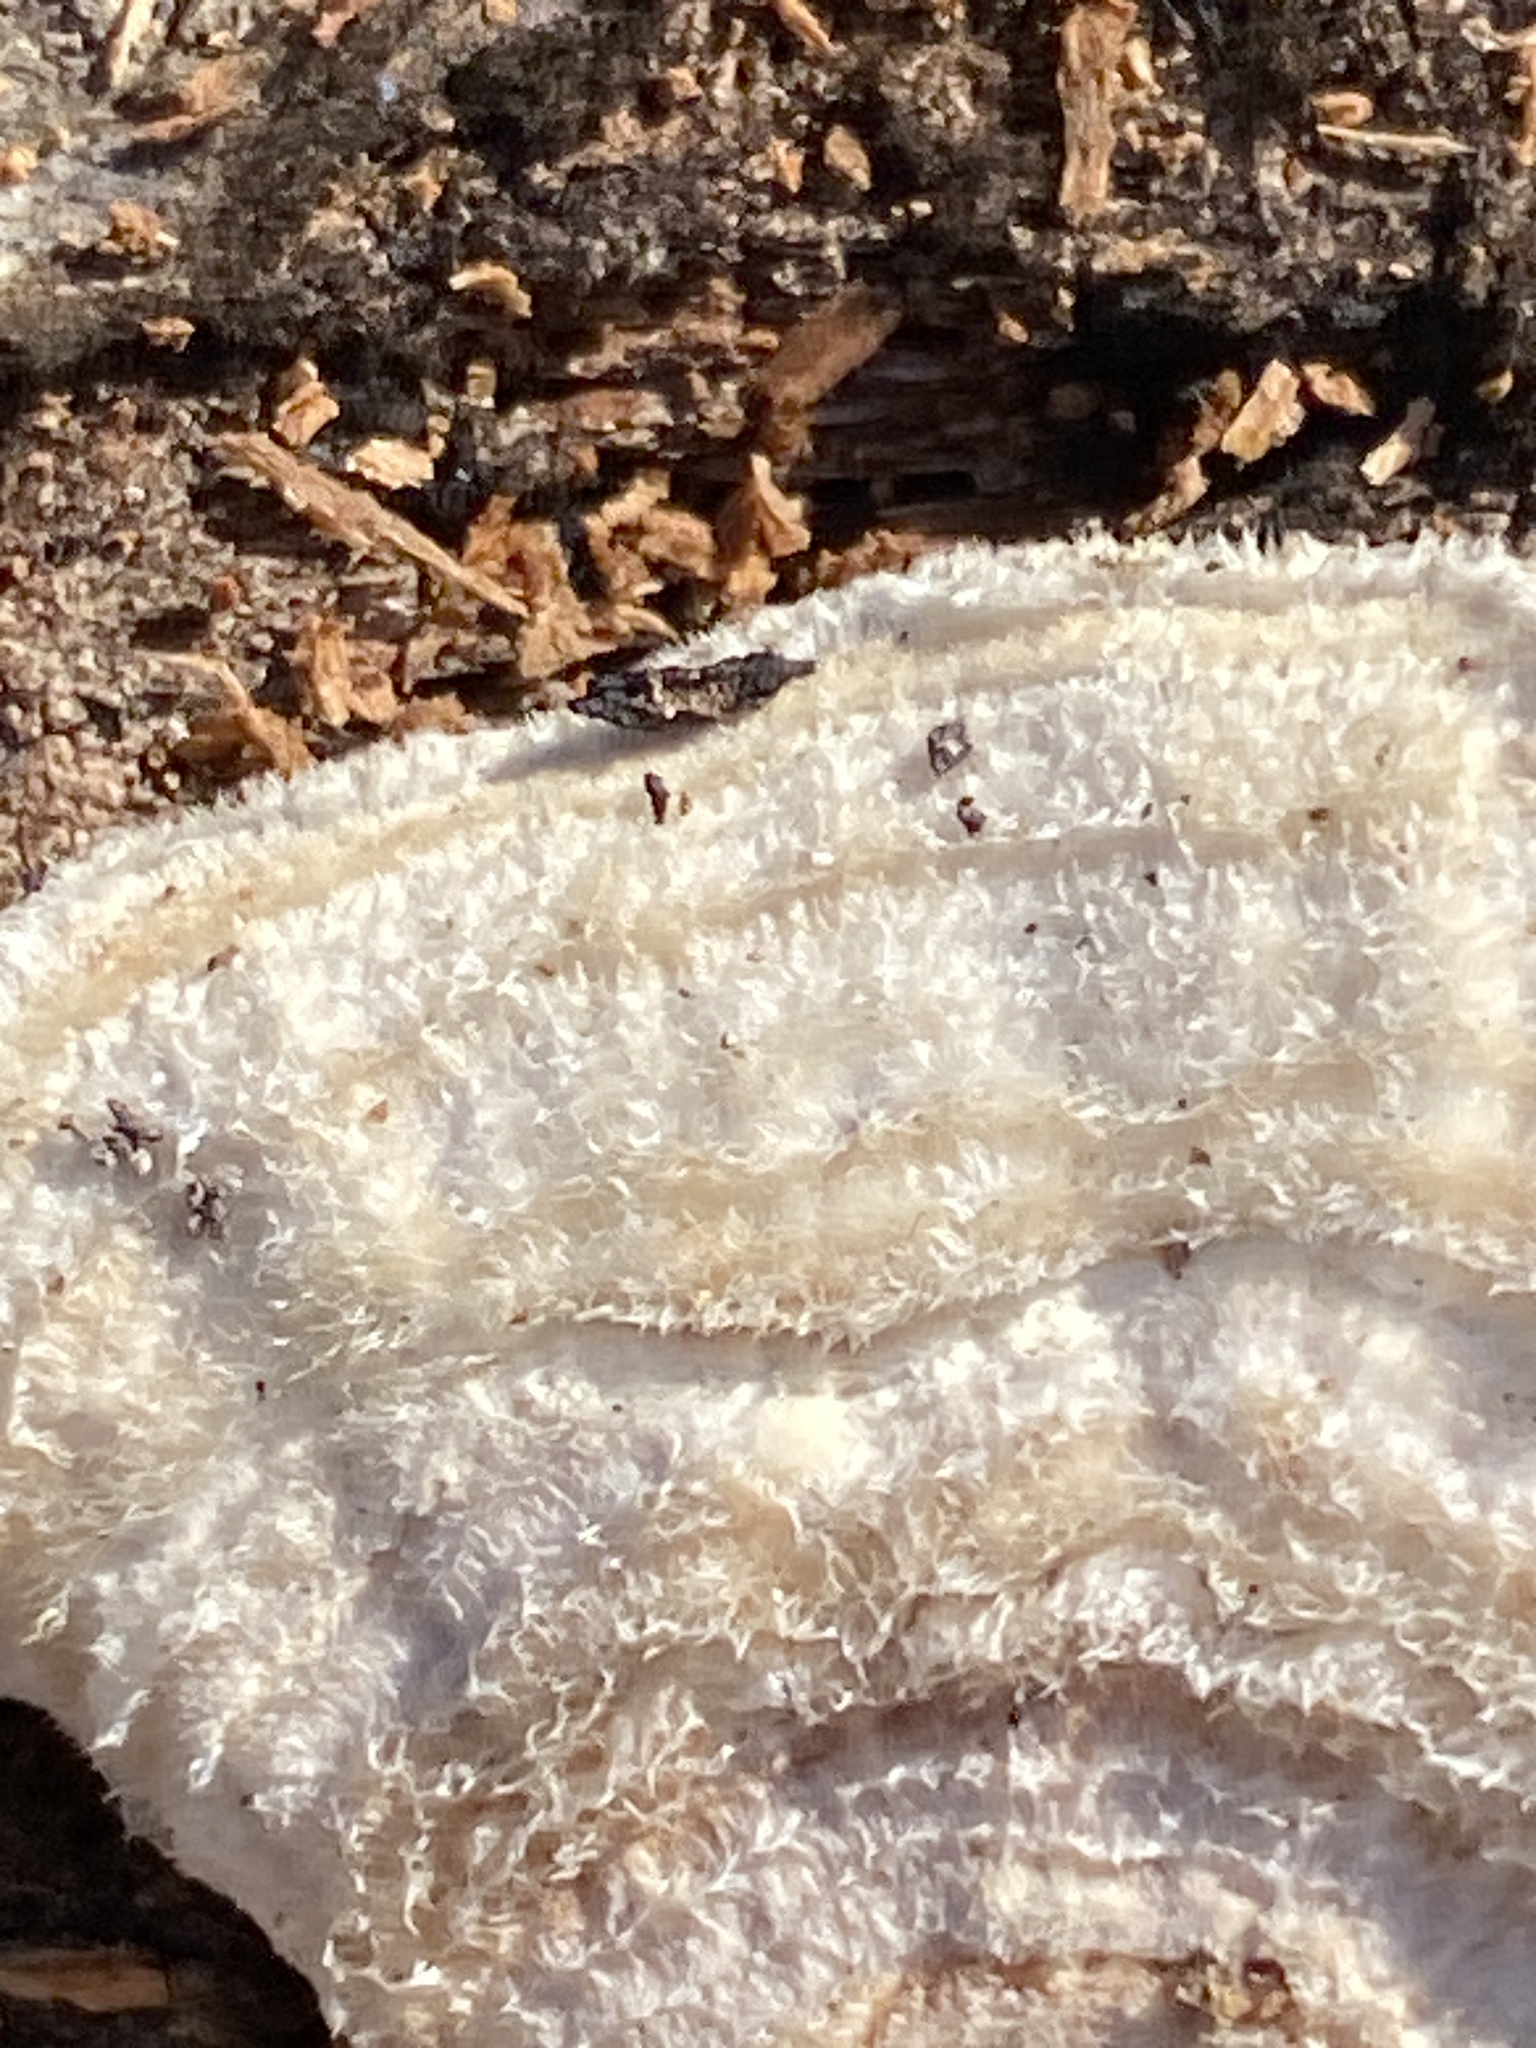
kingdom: Fungi
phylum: Basidiomycota
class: Agaricomycetes
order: Polyporales
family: Polyporaceae
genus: Lenzites
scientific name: Lenzites betulinus
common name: Birch mazegill
